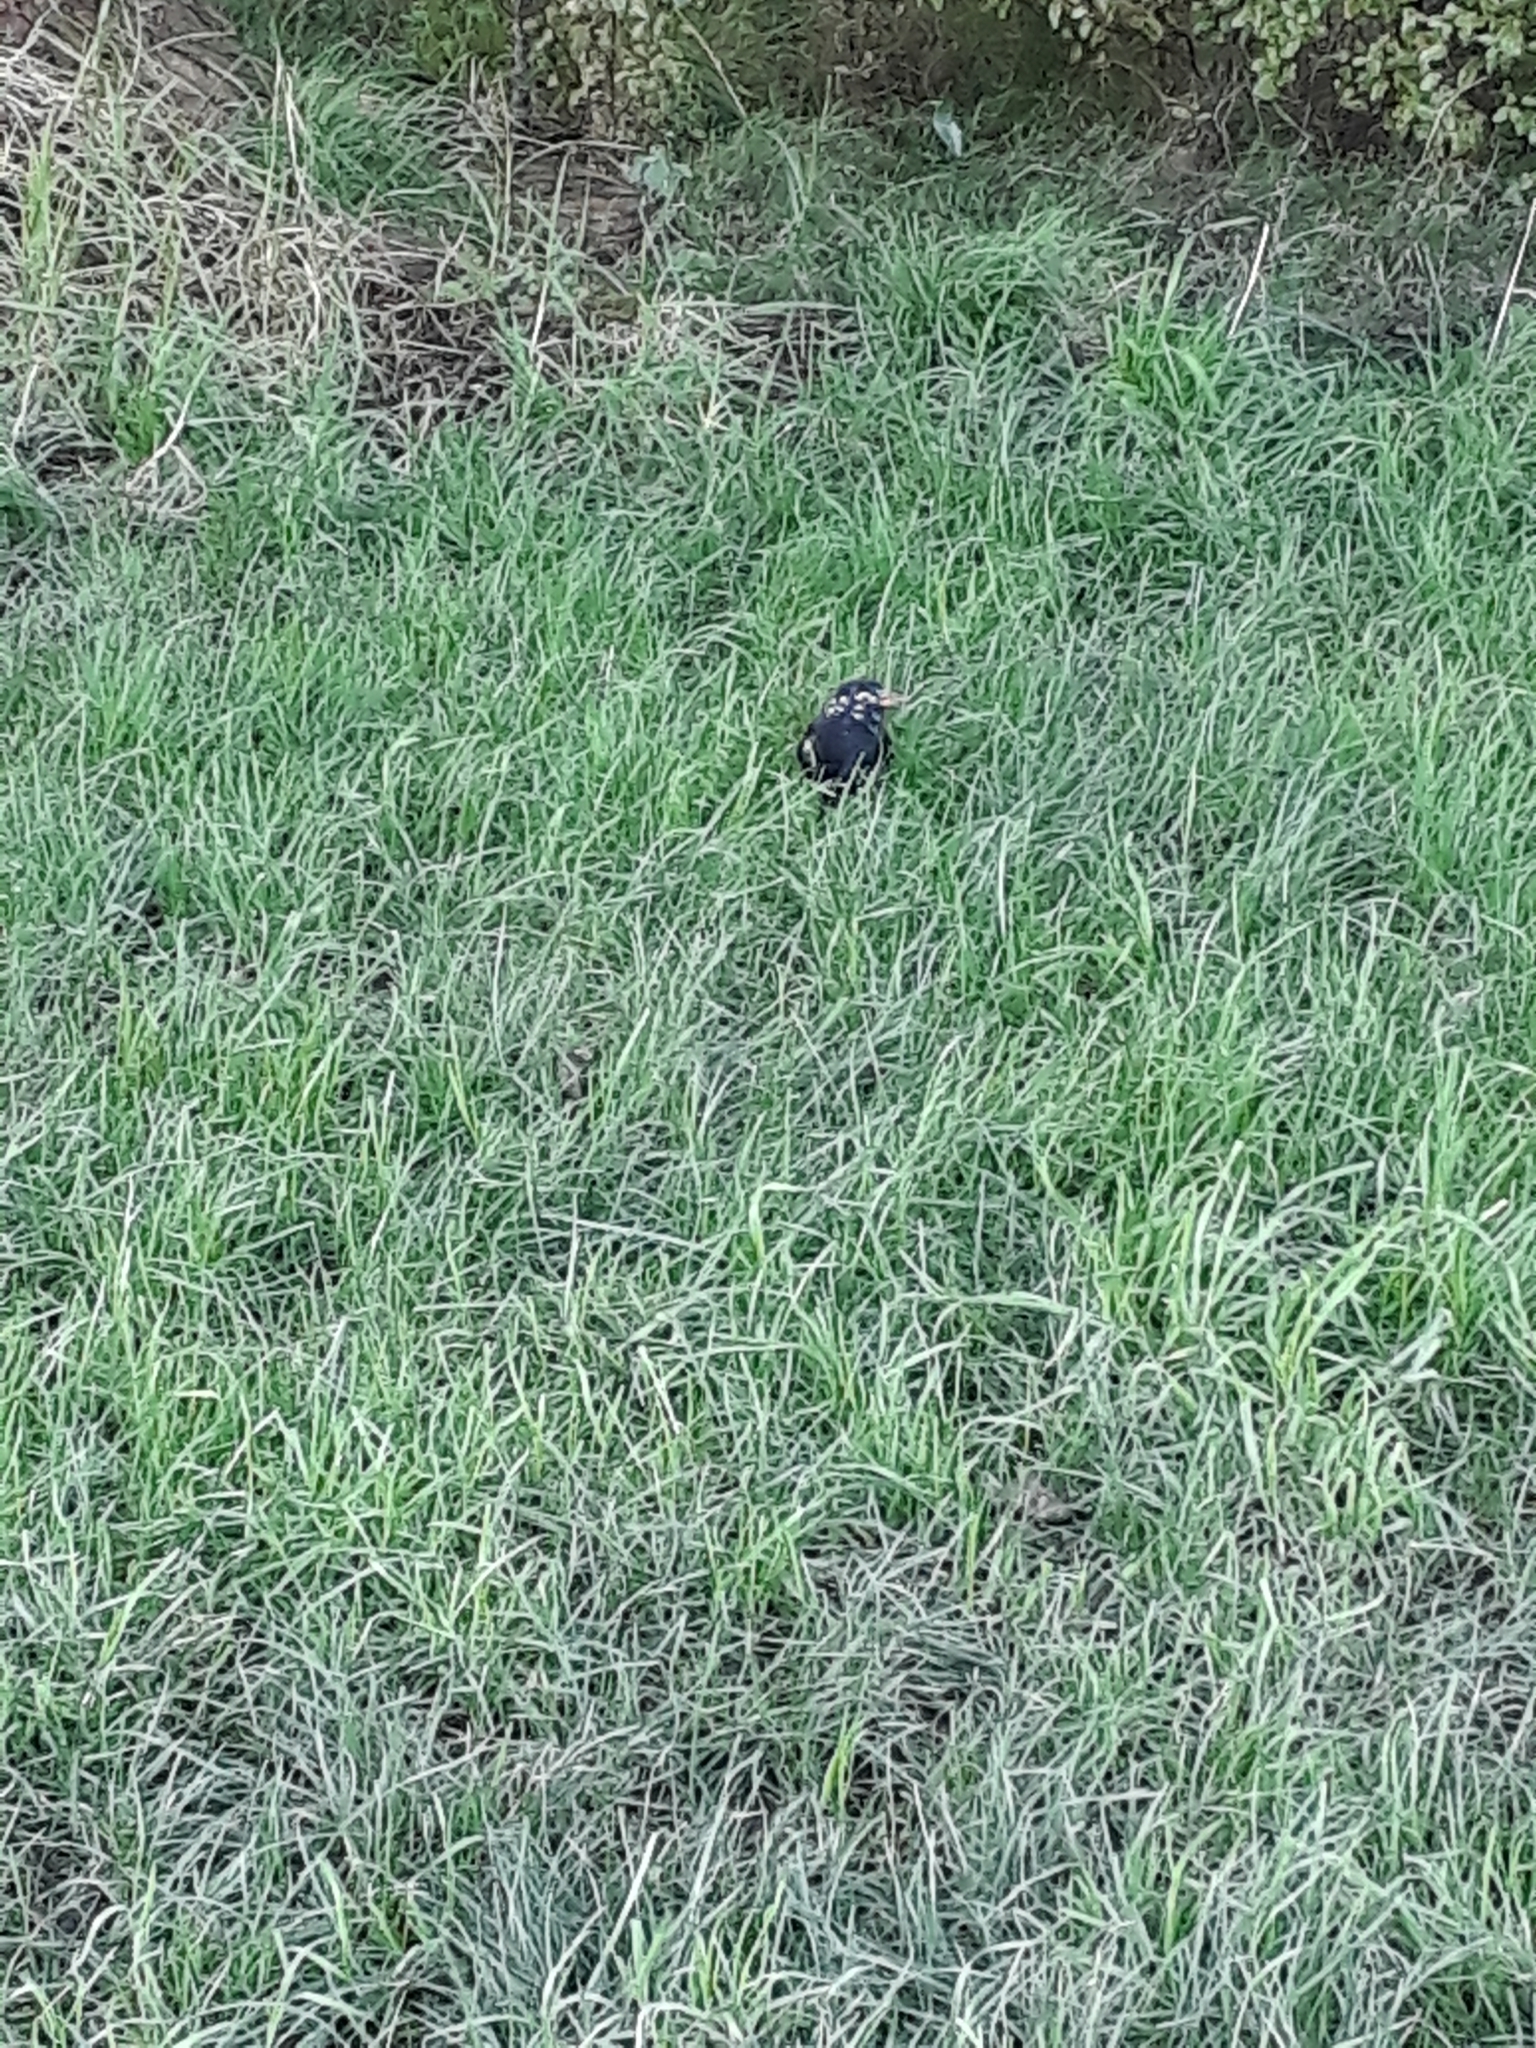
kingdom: Animalia
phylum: Chordata
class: Aves
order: Passeriformes
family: Turdidae
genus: Turdus
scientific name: Turdus merula
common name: Common blackbird
